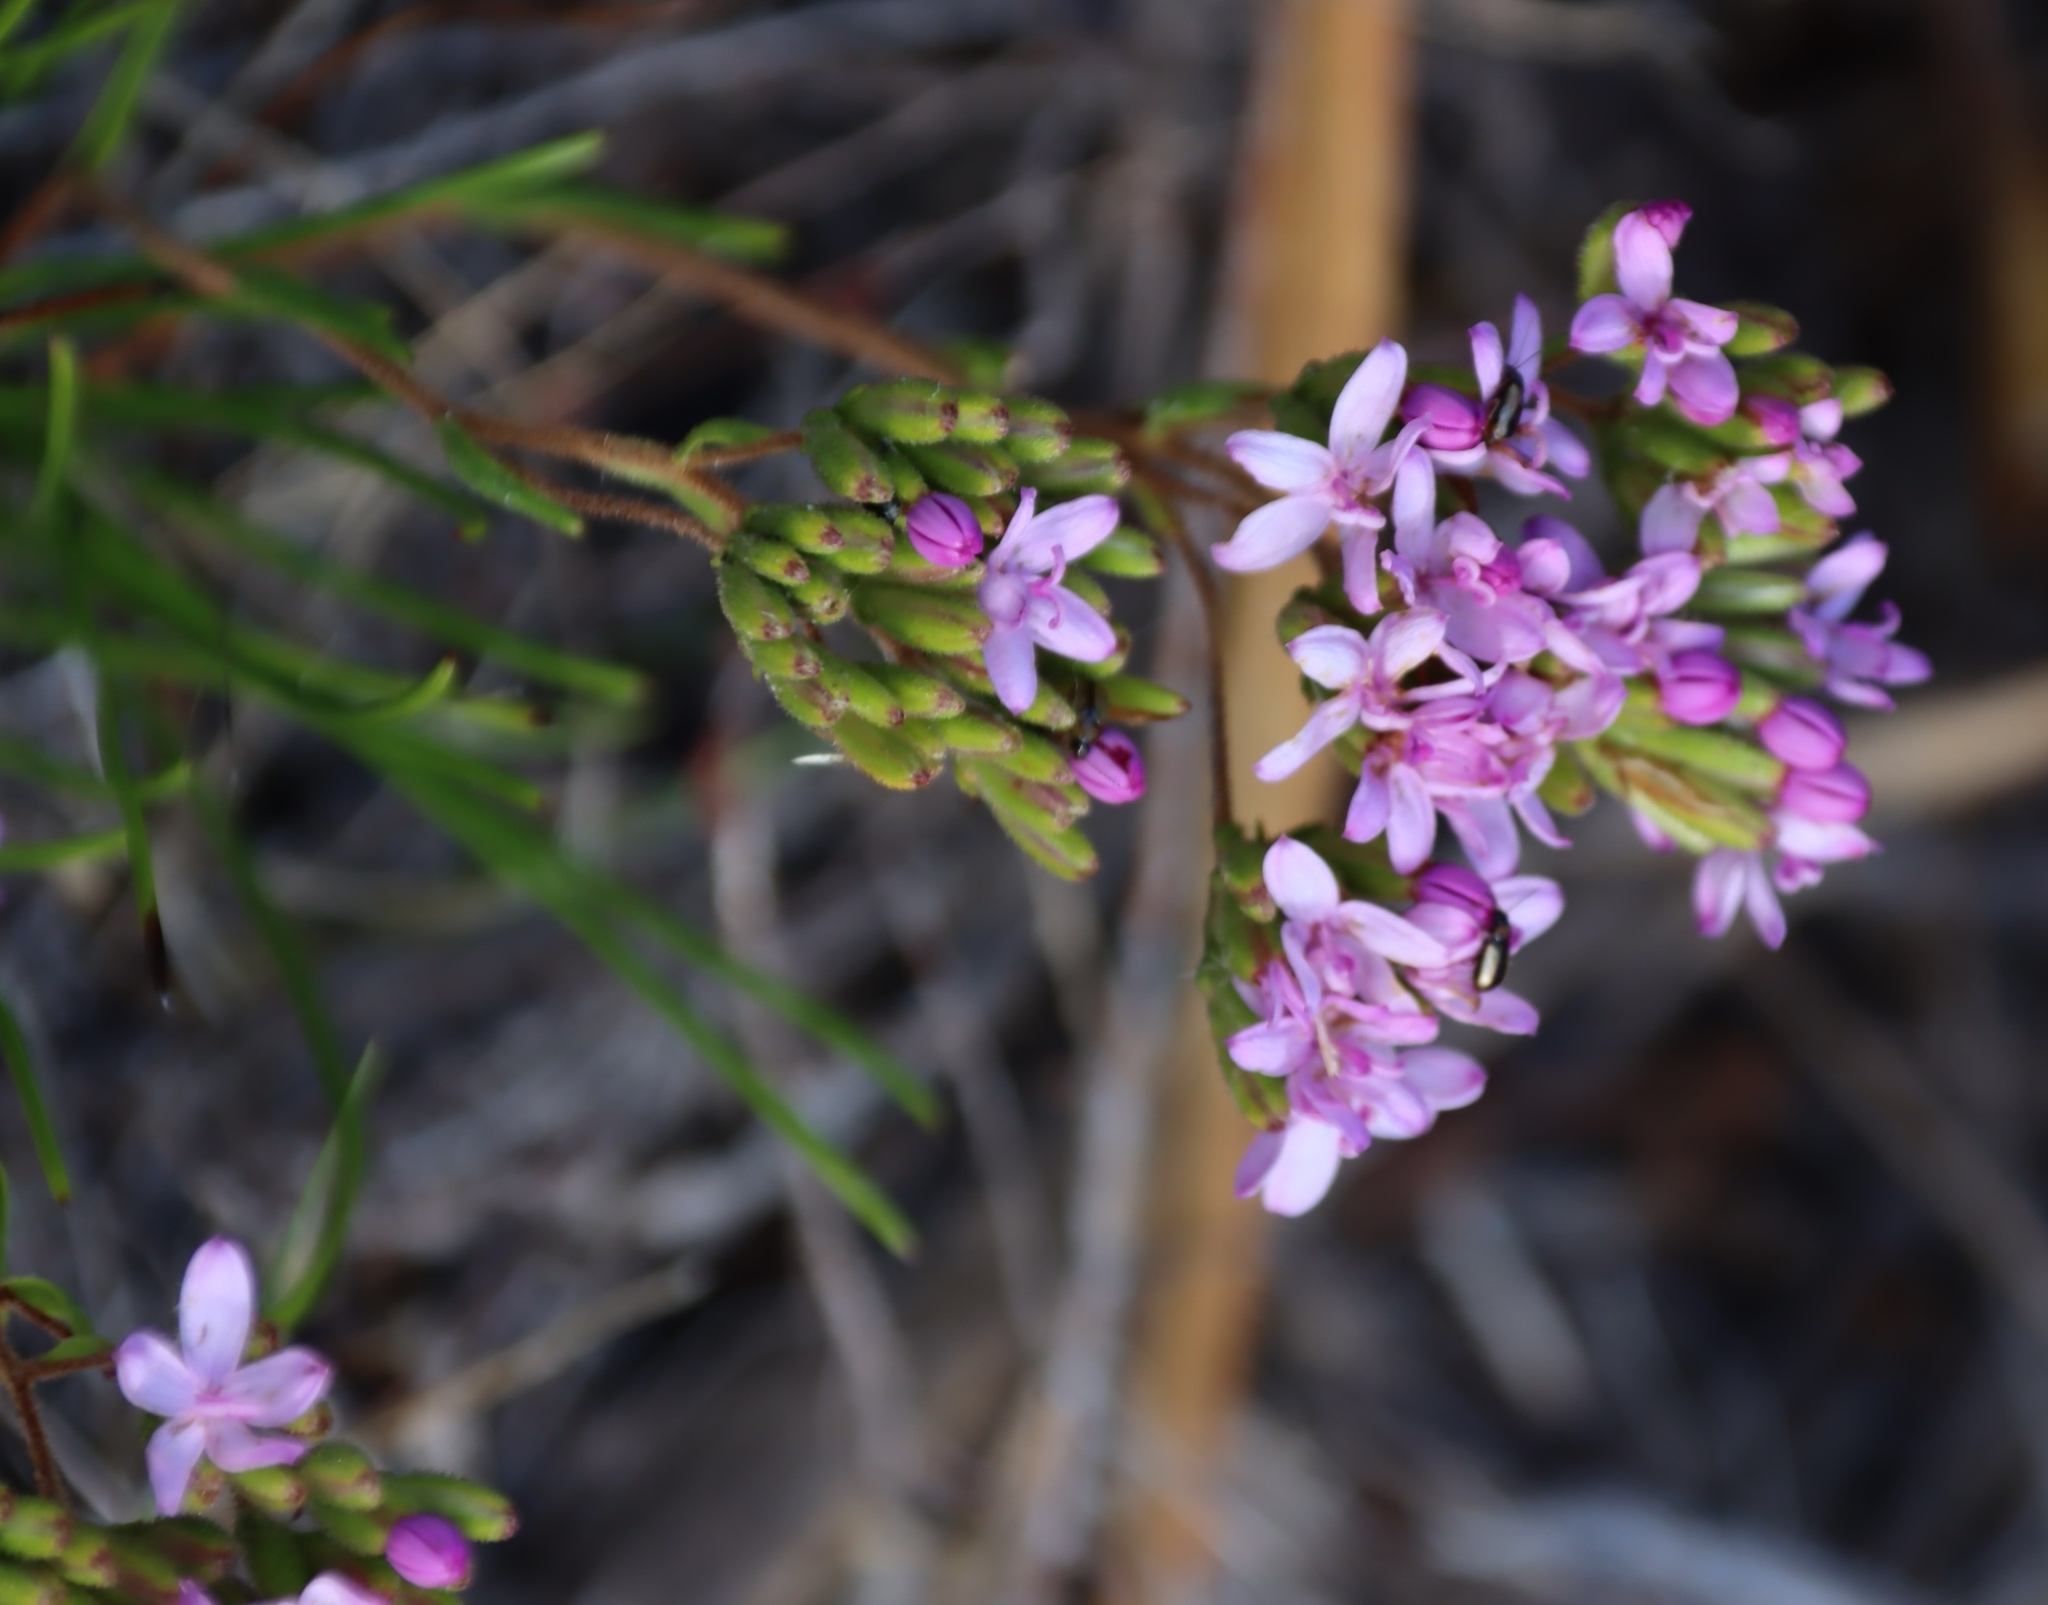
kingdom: Plantae
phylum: Tracheophyta
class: Magnoliopsida
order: Asterales
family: Asteraceae
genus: Corymbium
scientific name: Corymbium africanum
